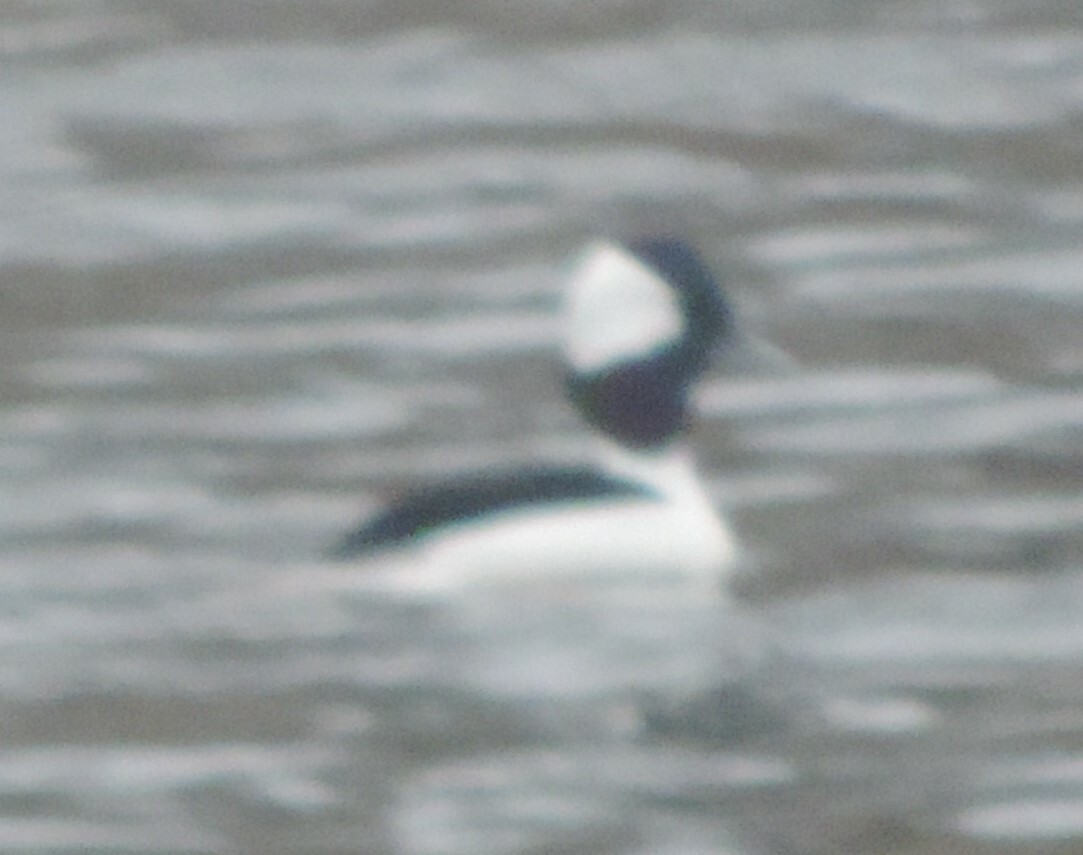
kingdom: Animalia
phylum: Chordata
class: Aves
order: Anseriformes
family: Anatidae
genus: Bucephala
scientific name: Bucephala albeola
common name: Bufflehead
